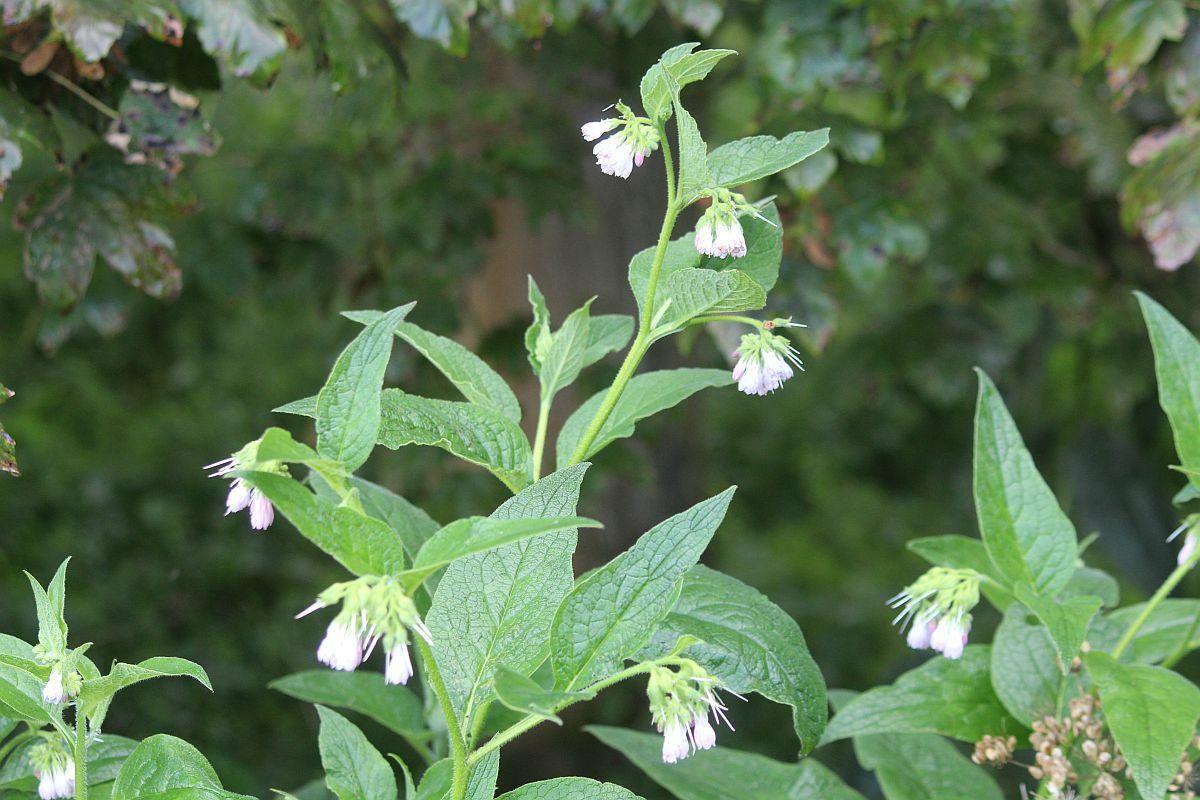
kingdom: Plantae
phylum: Tracheophyta
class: Magnoliopsida
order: Boraginales
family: Boraginaceae
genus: Symphytum
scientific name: Symphytum uplandicum
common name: Russian comfrey
